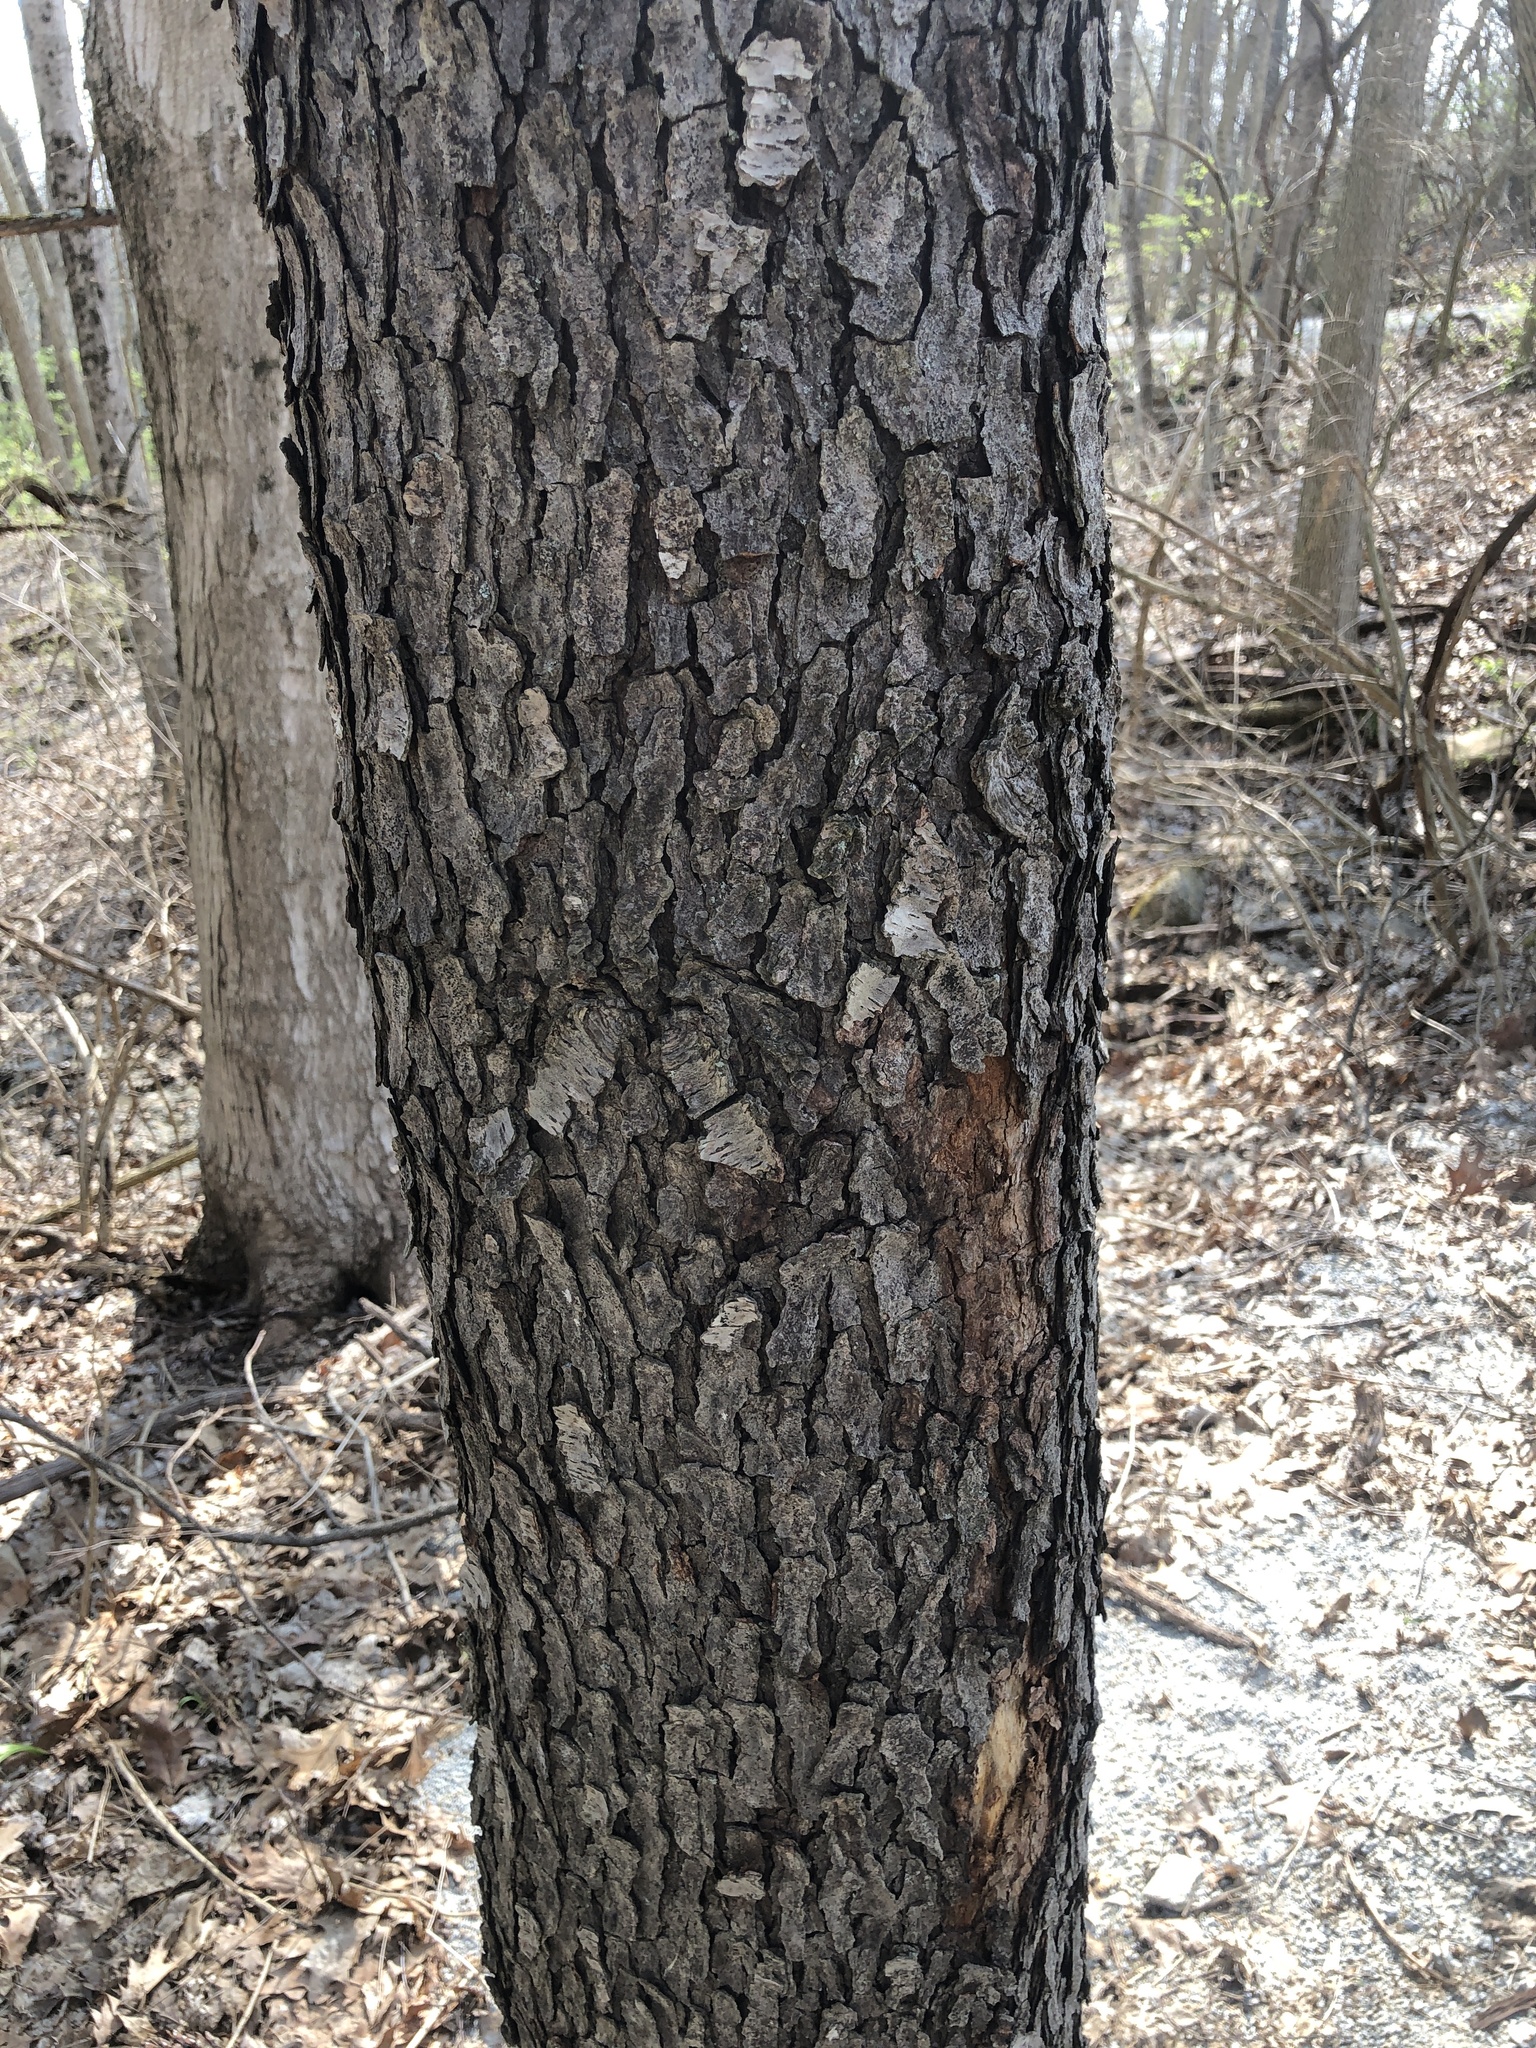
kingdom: Plantae
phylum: Tracheophyta
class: Magnoliopsida
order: Rosales
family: Rosaceae
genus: Prunus
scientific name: Prunus serotina
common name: Black cherry
